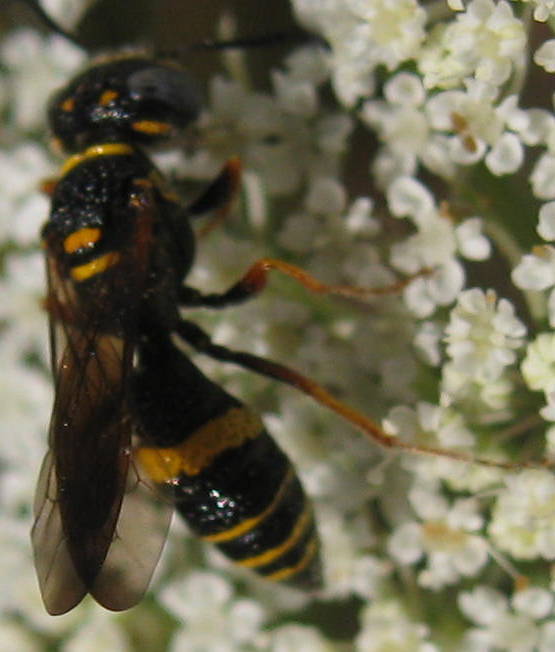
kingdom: Animalia
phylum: Arthropoda
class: Insecta
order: Hymenoptera
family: Crabronidae
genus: Philanthus
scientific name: Philanthus gibbosus
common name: Humped beewolf
